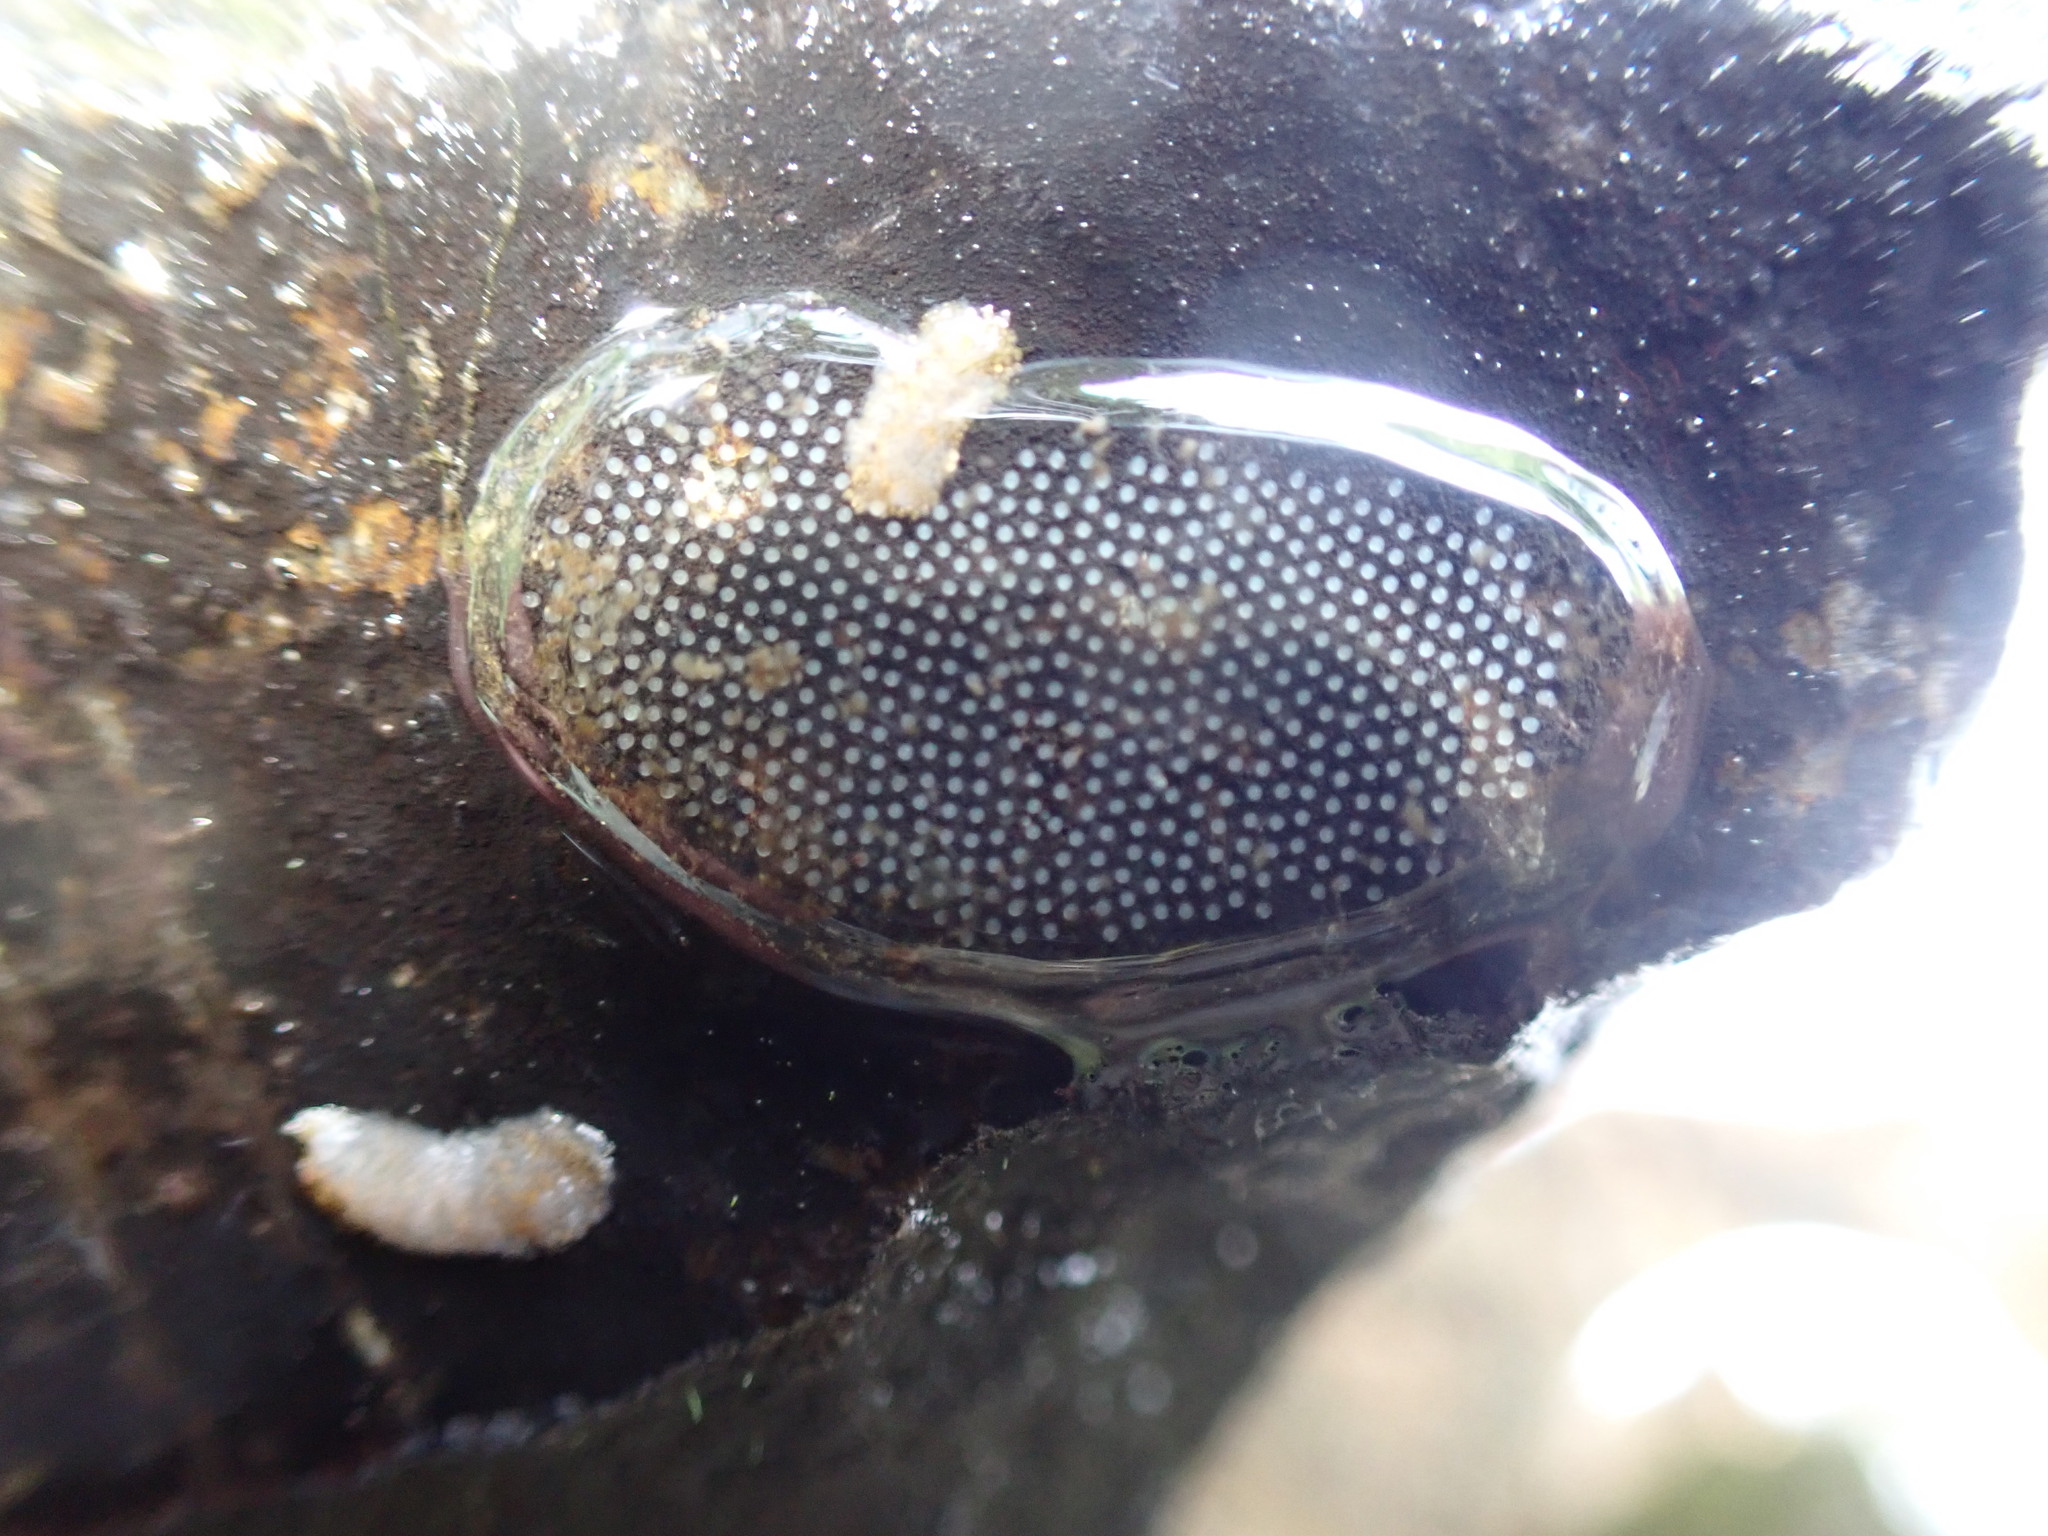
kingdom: Animalia
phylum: Mollusca
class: Gastropoda
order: Littorinimorpha
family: Tateidae
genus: Potamopyrgus
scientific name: Potamopyrgus antipodarum
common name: Jenkins' spire snail
